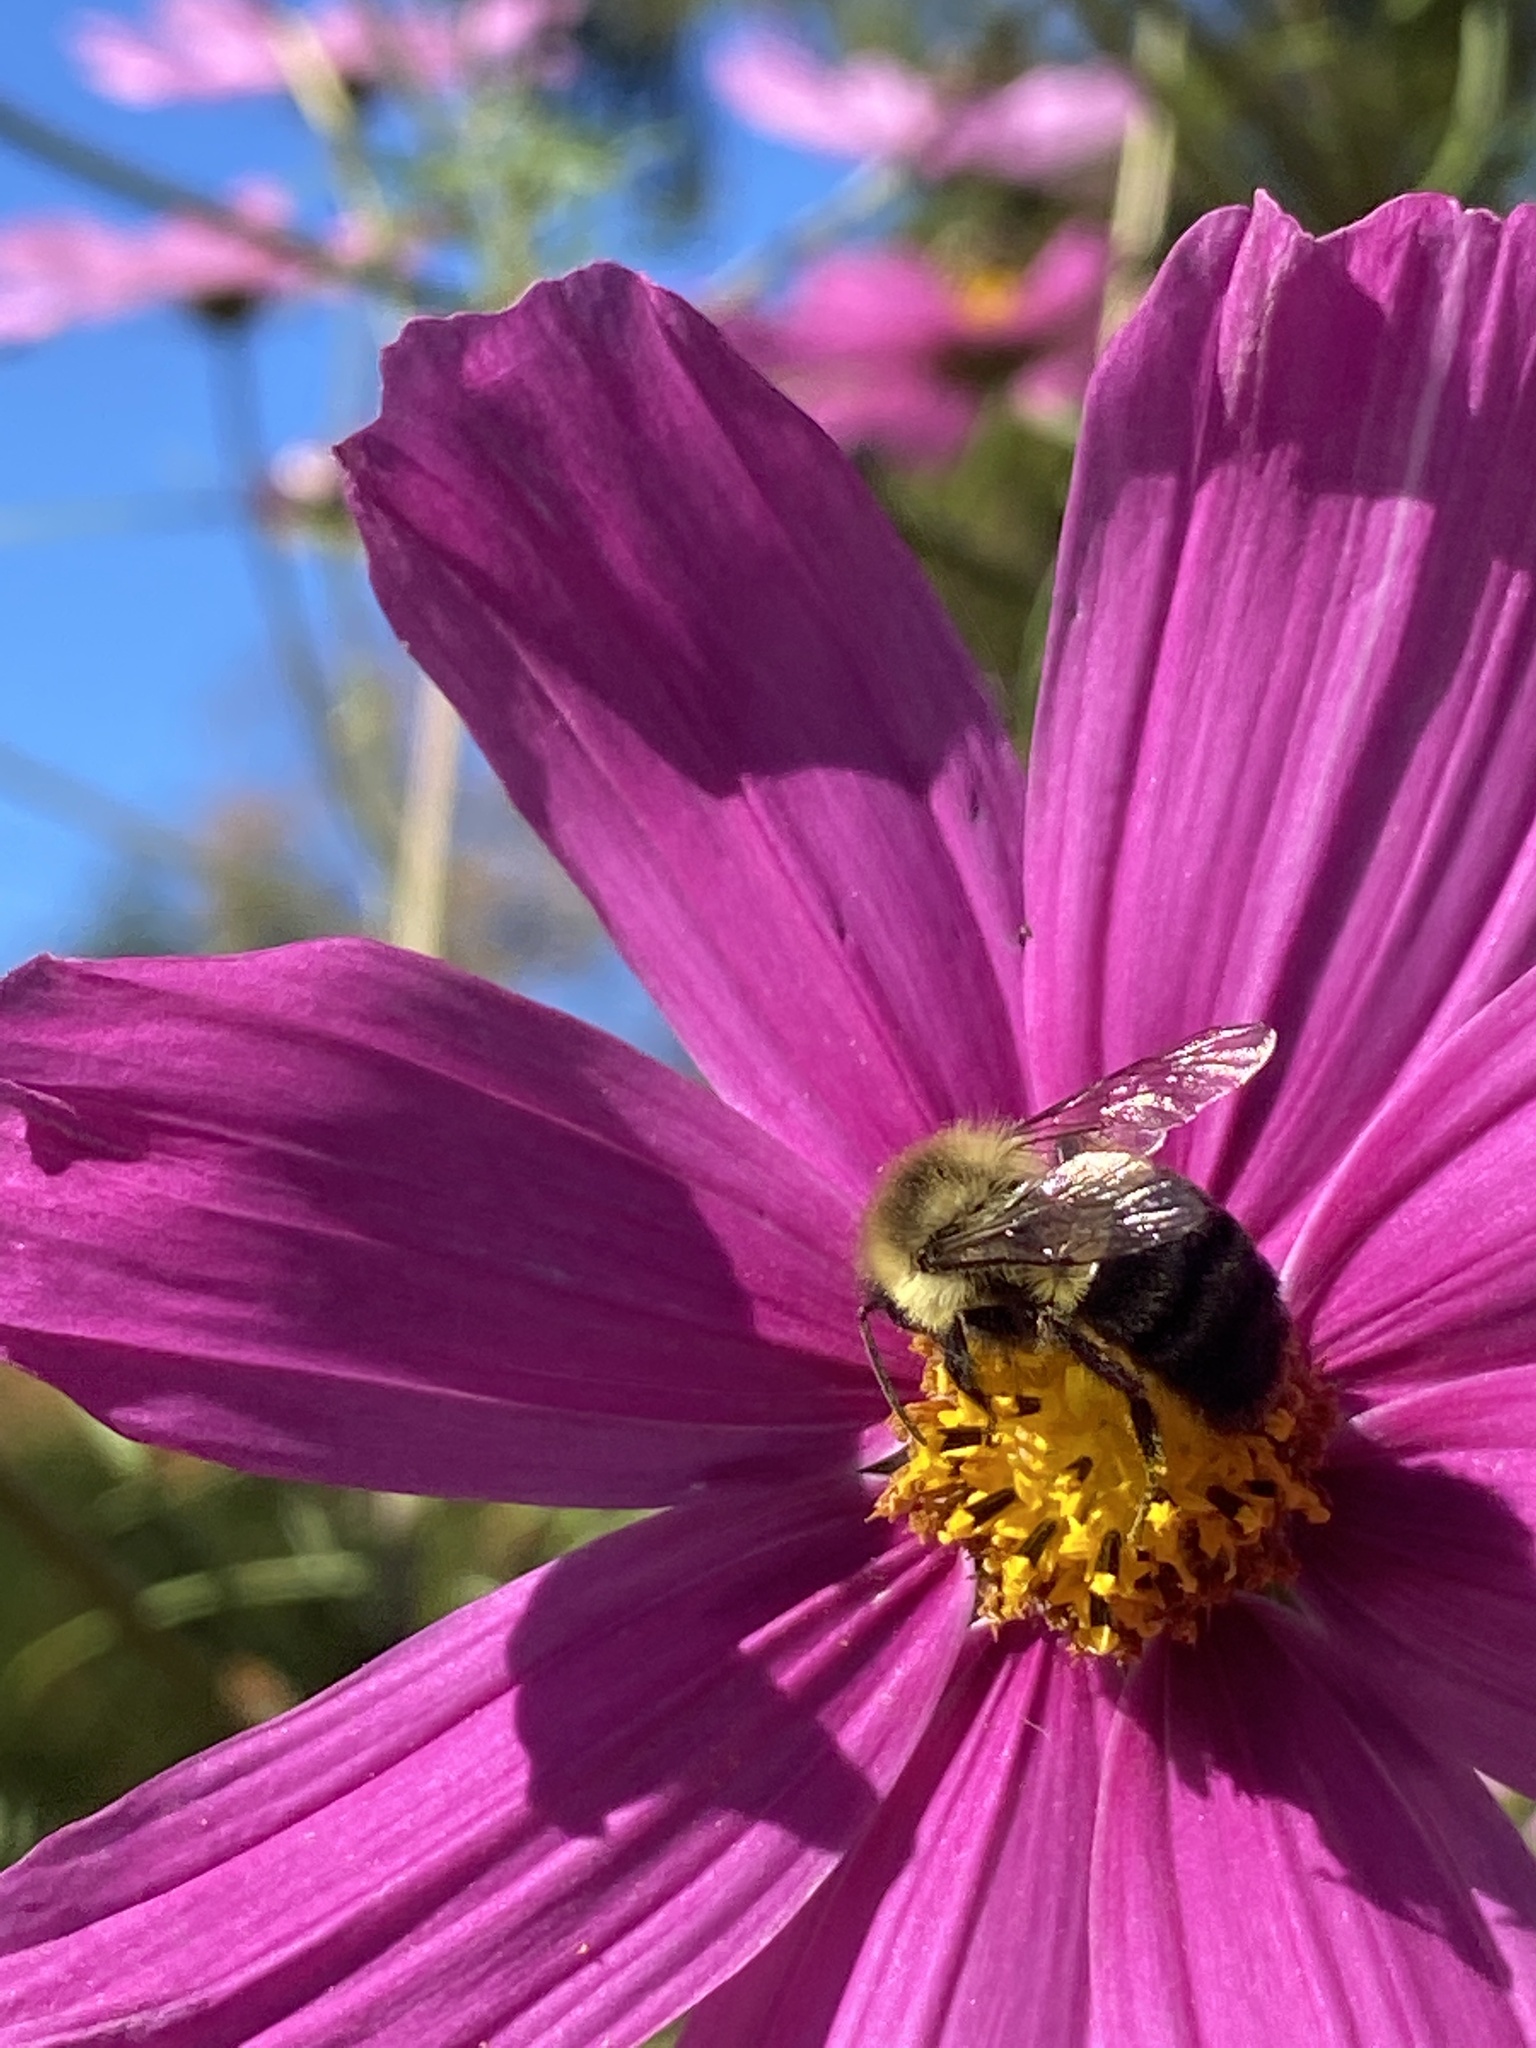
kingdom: Animalia
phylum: Arthropoda
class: Insecta
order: Hymenoptera
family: Apidae
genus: Bombus
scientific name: Bombus impatiens
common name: Common eastern bumble bee
